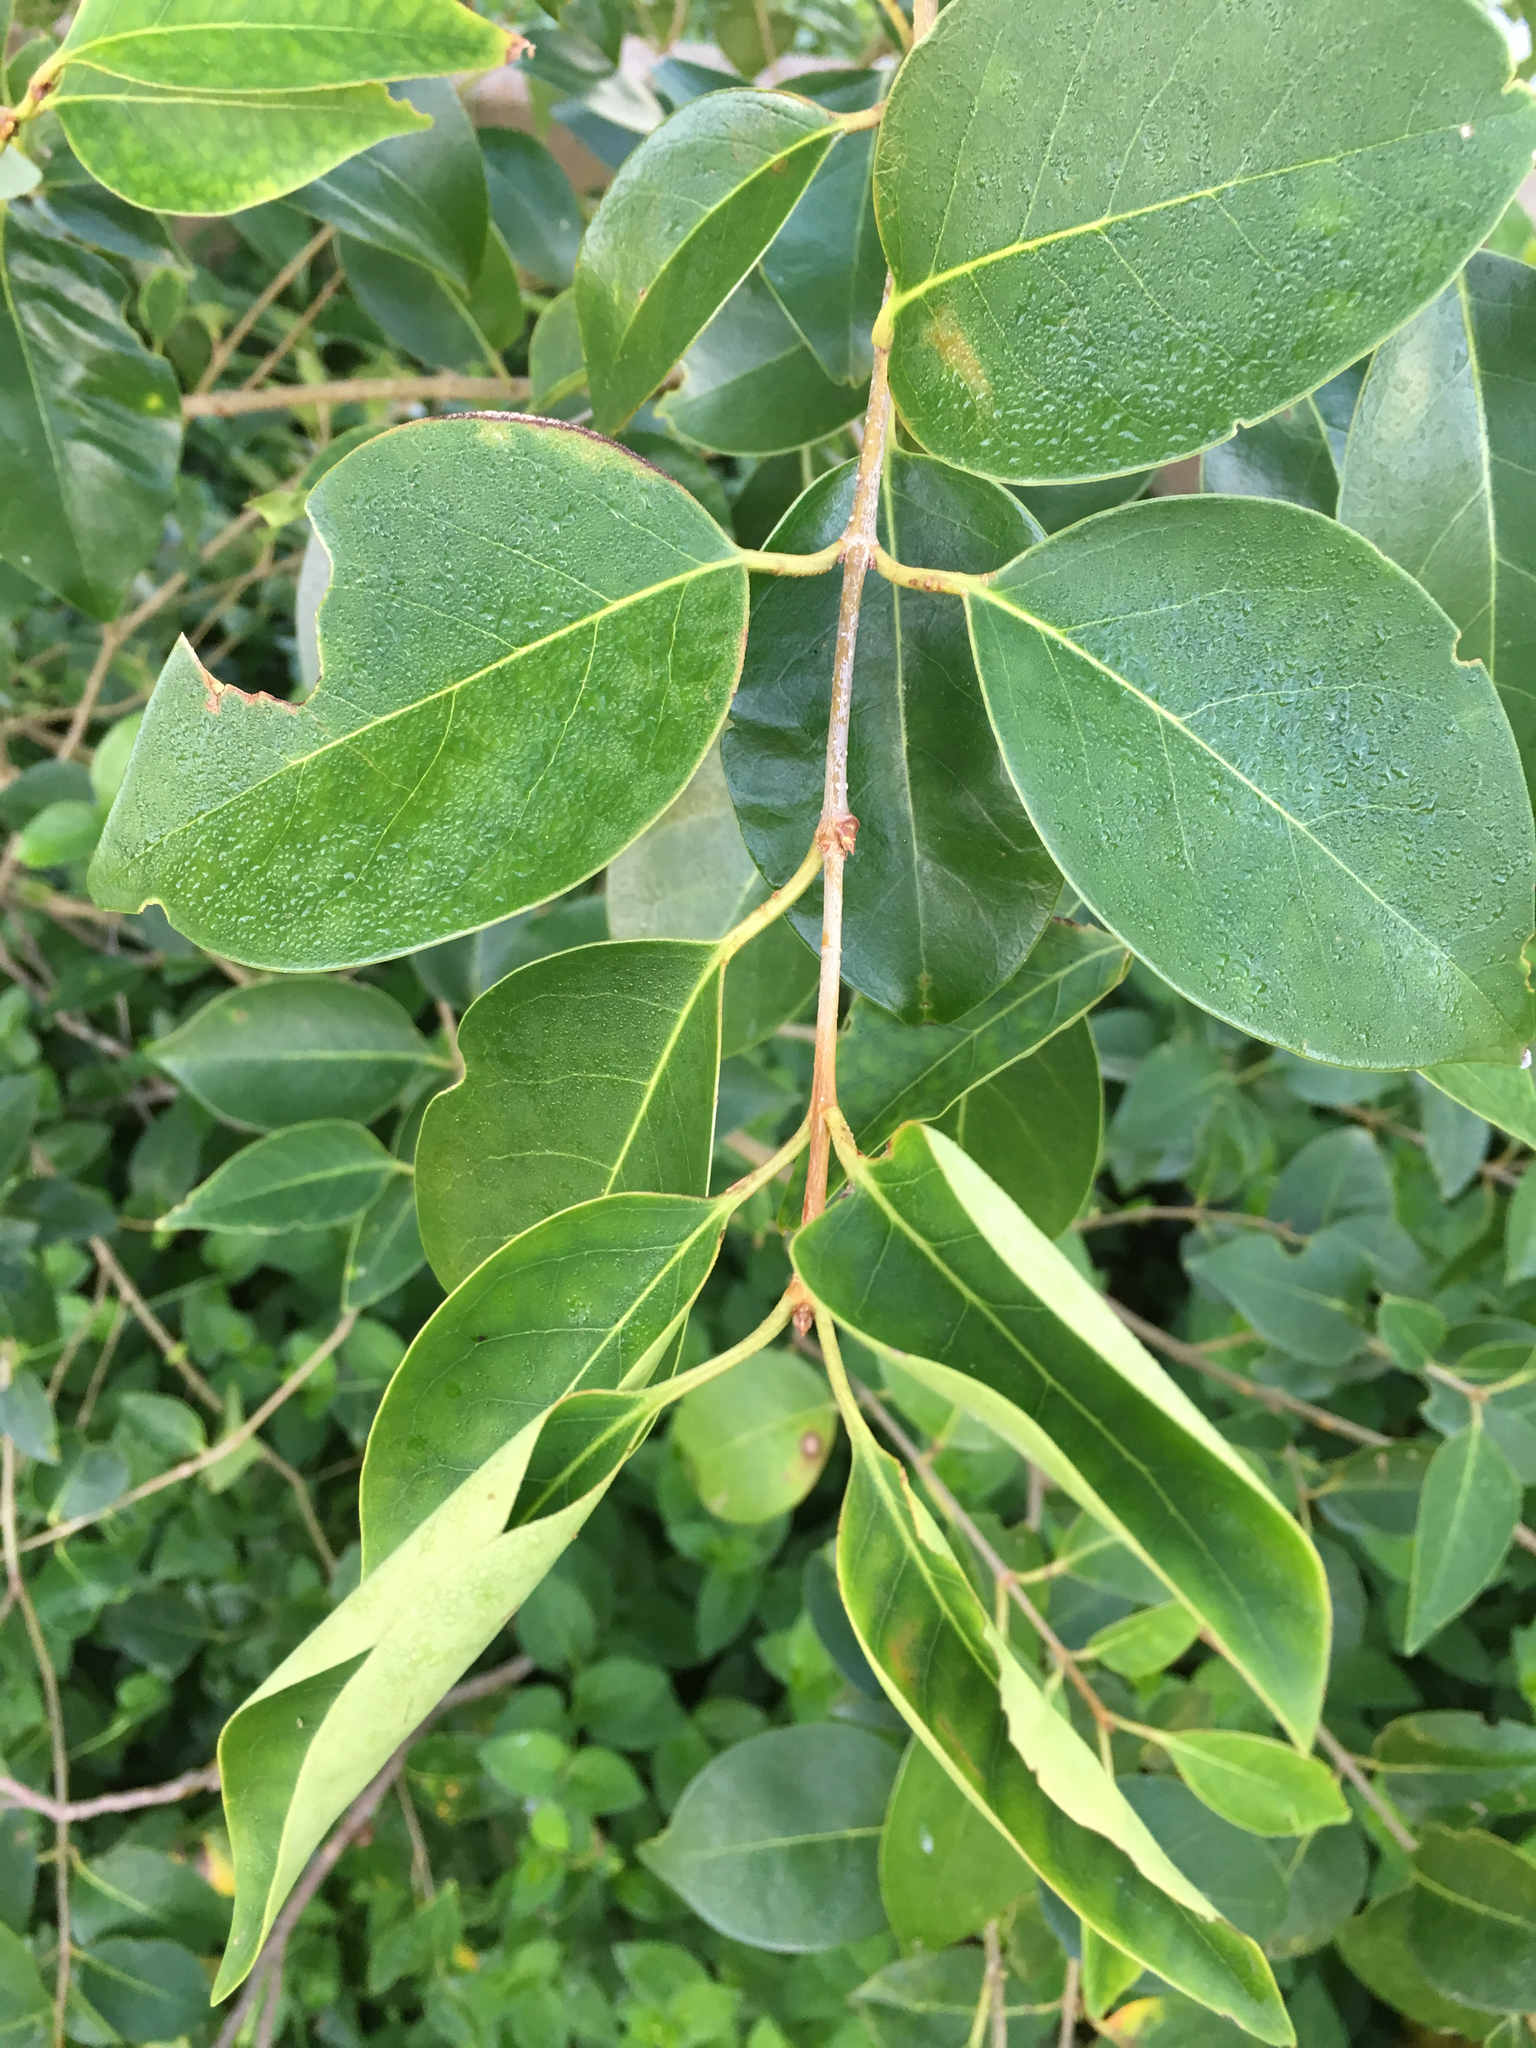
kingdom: Plantae
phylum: Tracheophyta
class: Magnoliopsida
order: Lamiales
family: Oleaceae
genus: Ligustrum
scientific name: Ligustrum lucidum
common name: Glossy privet
